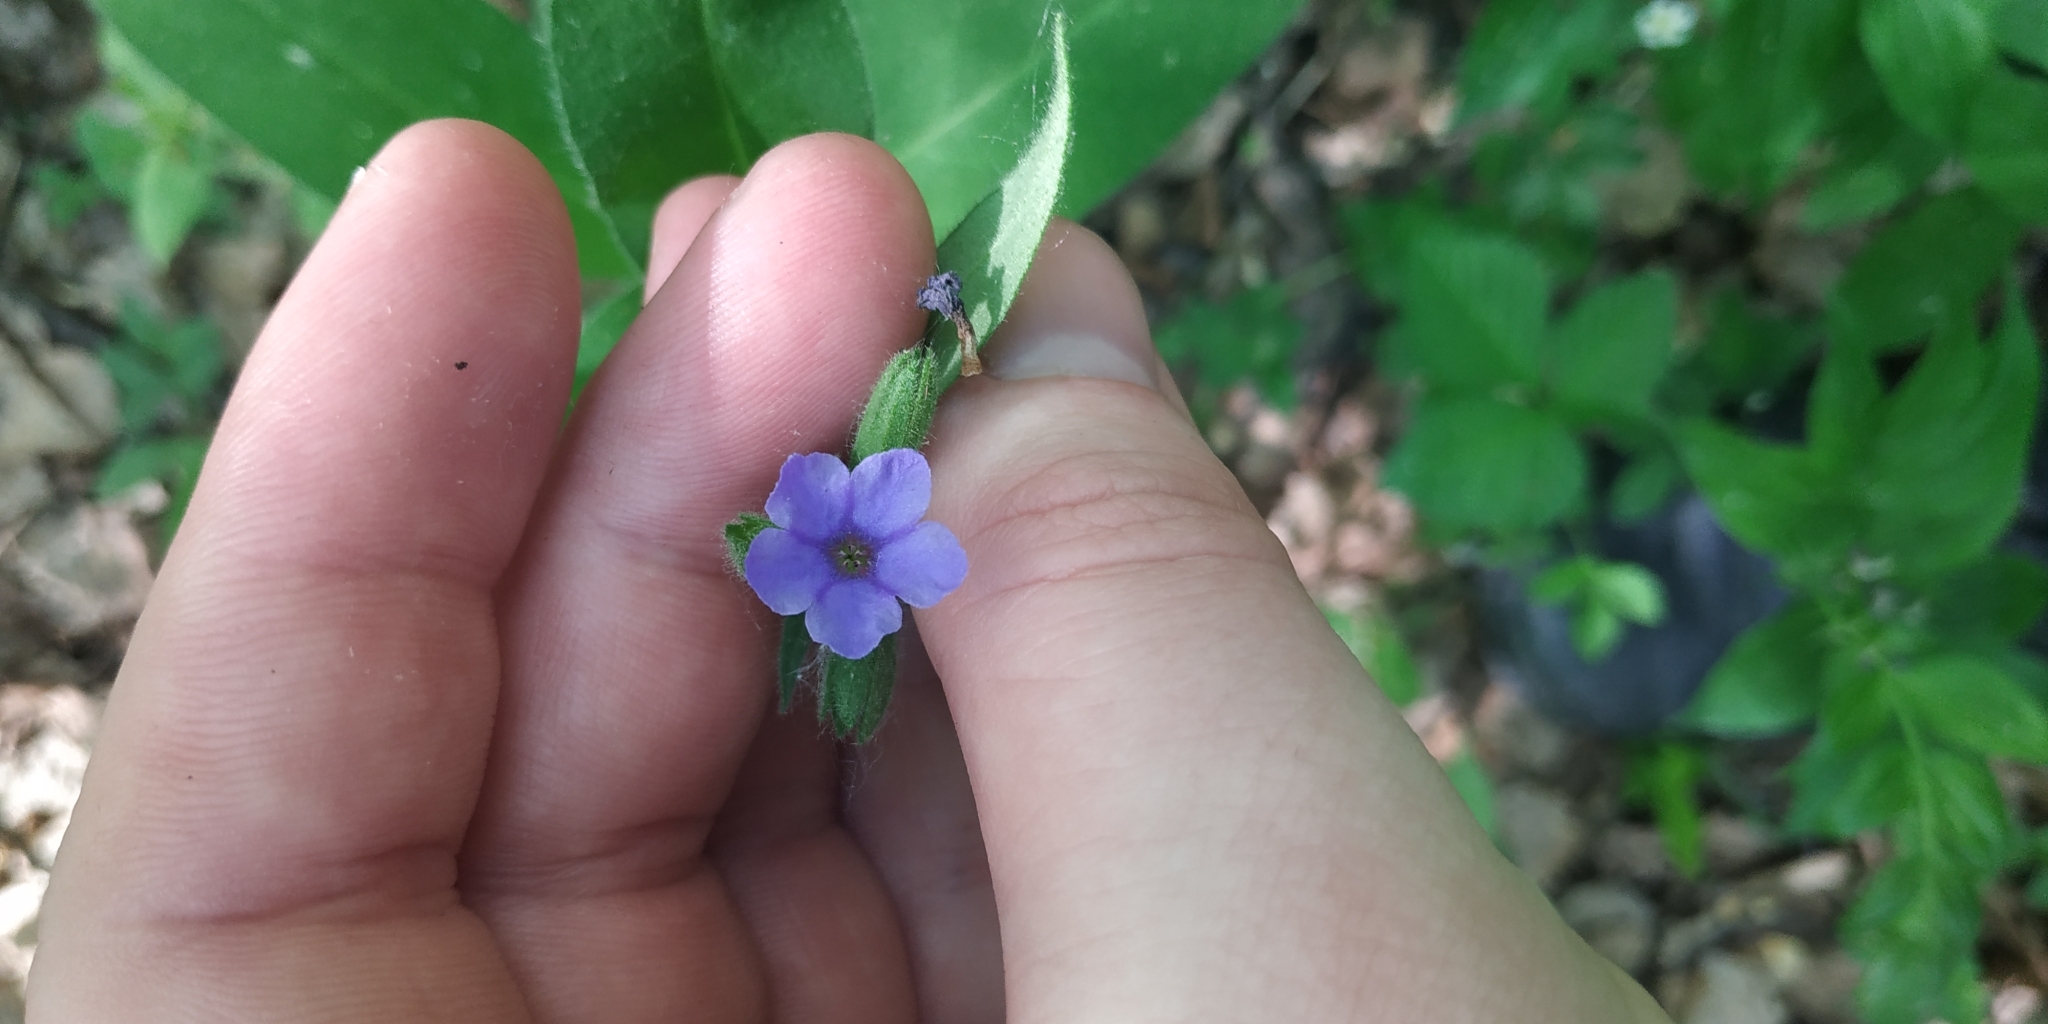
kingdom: Plantae
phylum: Tracheophyta
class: Magnoliopsida
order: Boraginales
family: Boraginaceae
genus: Pulmonaria
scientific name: Pulmonaria mollis
